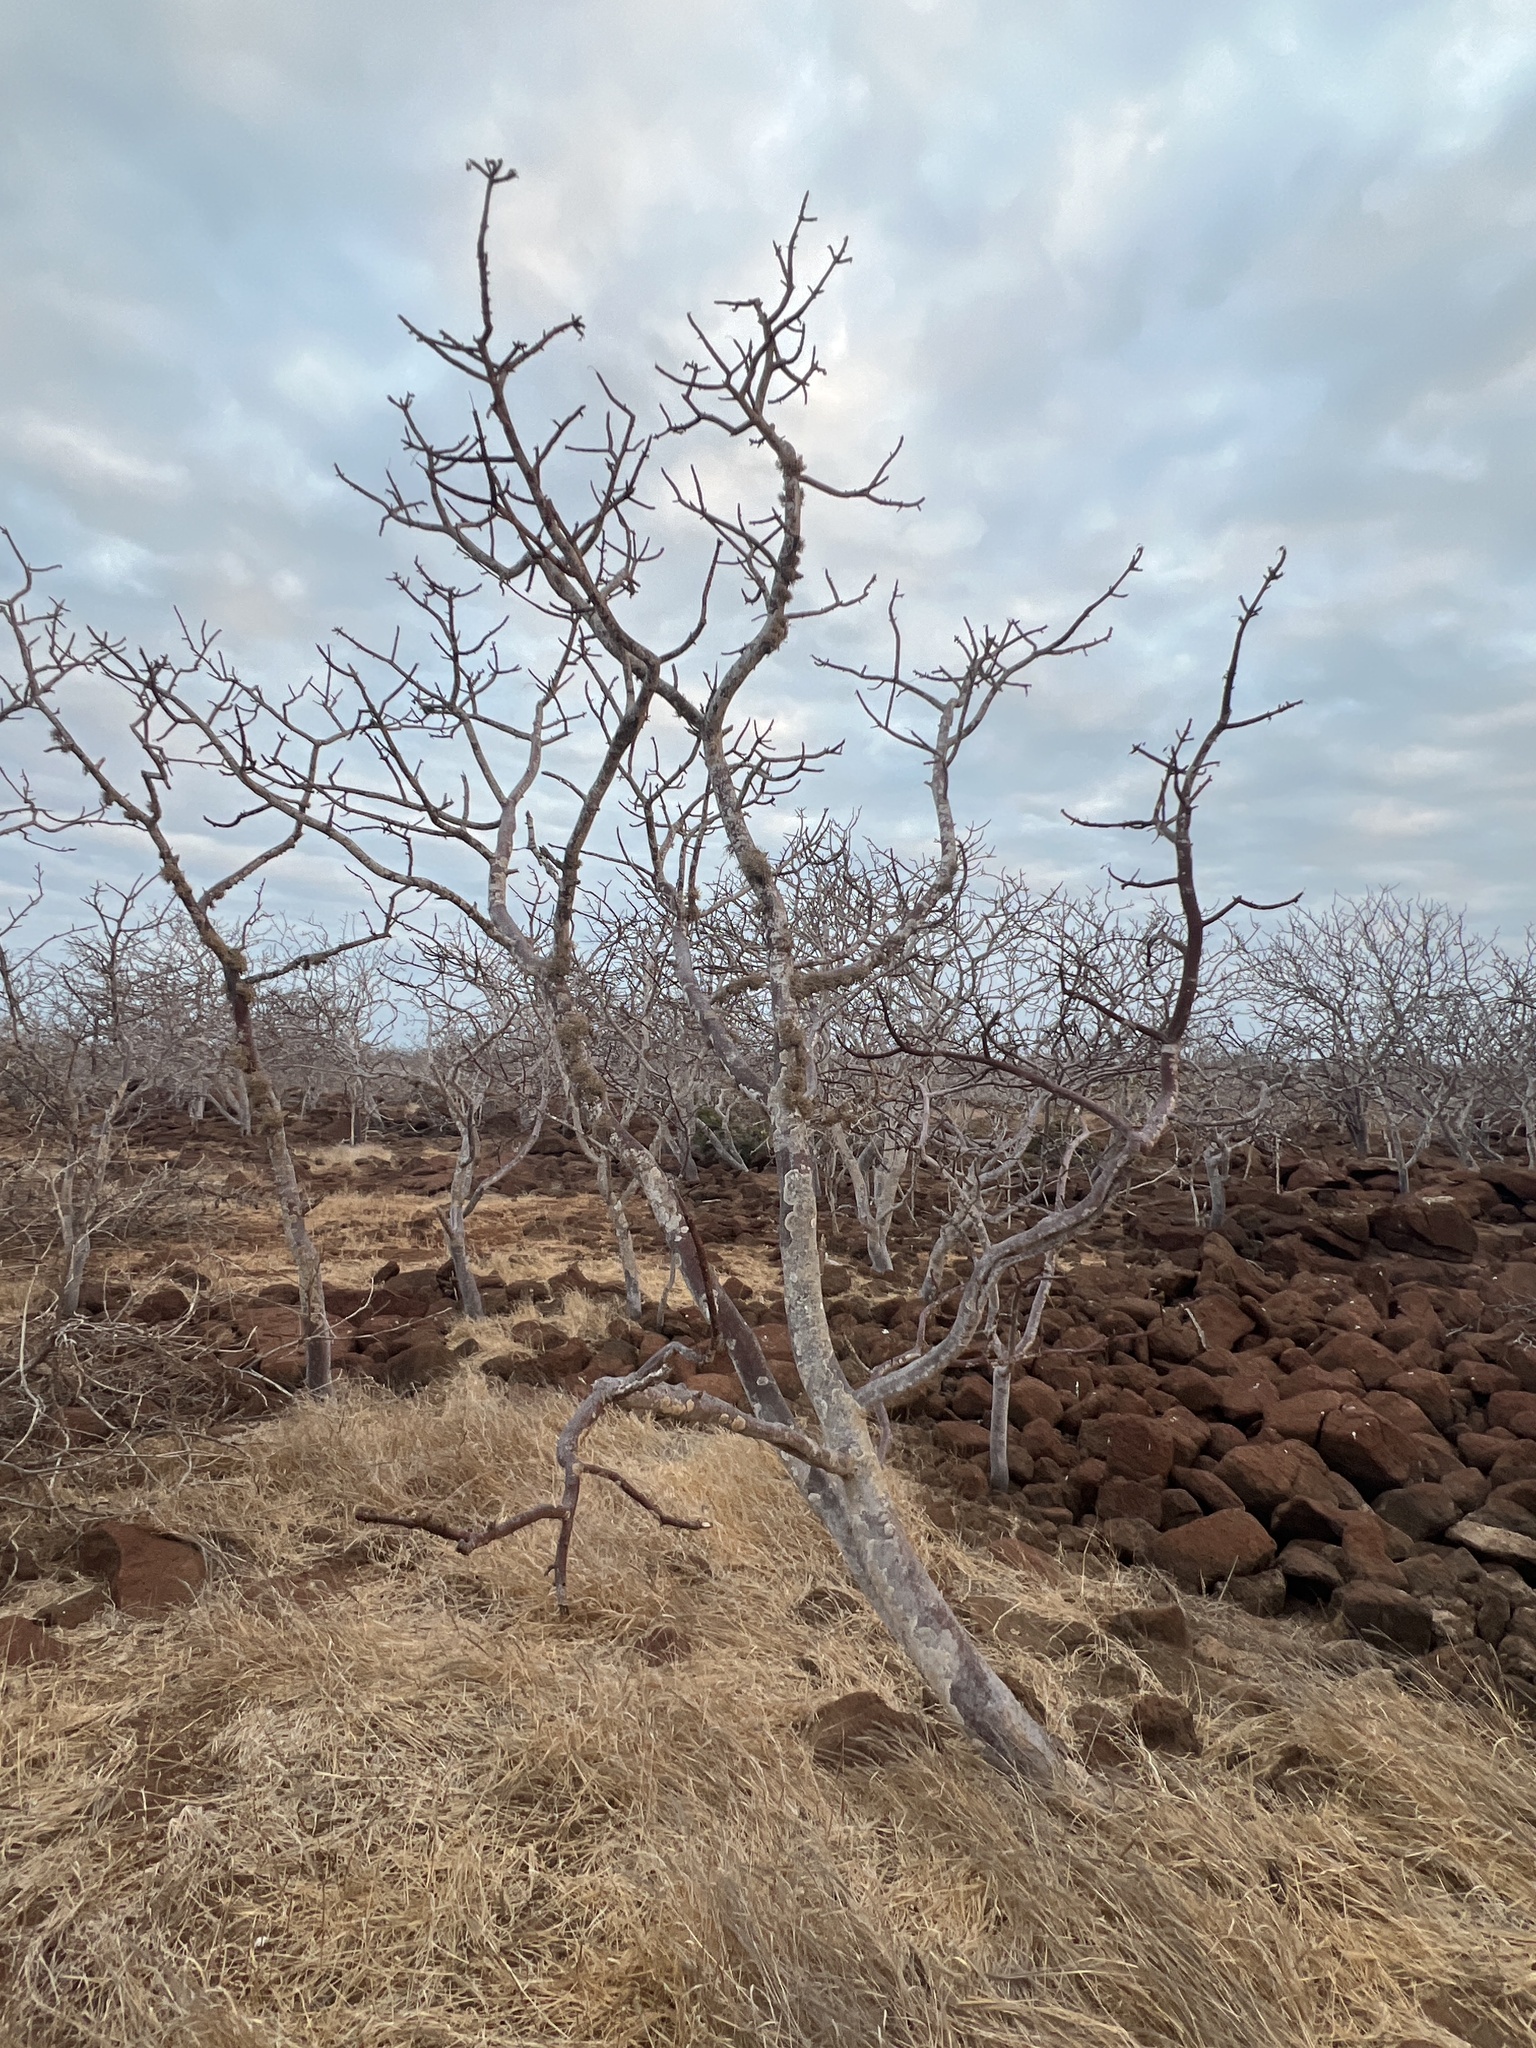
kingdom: Plantae
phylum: Tracheophyta
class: Magnoliopsida
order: Sapindales
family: Burseraceae
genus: Bursera
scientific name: Bursera graveolens
